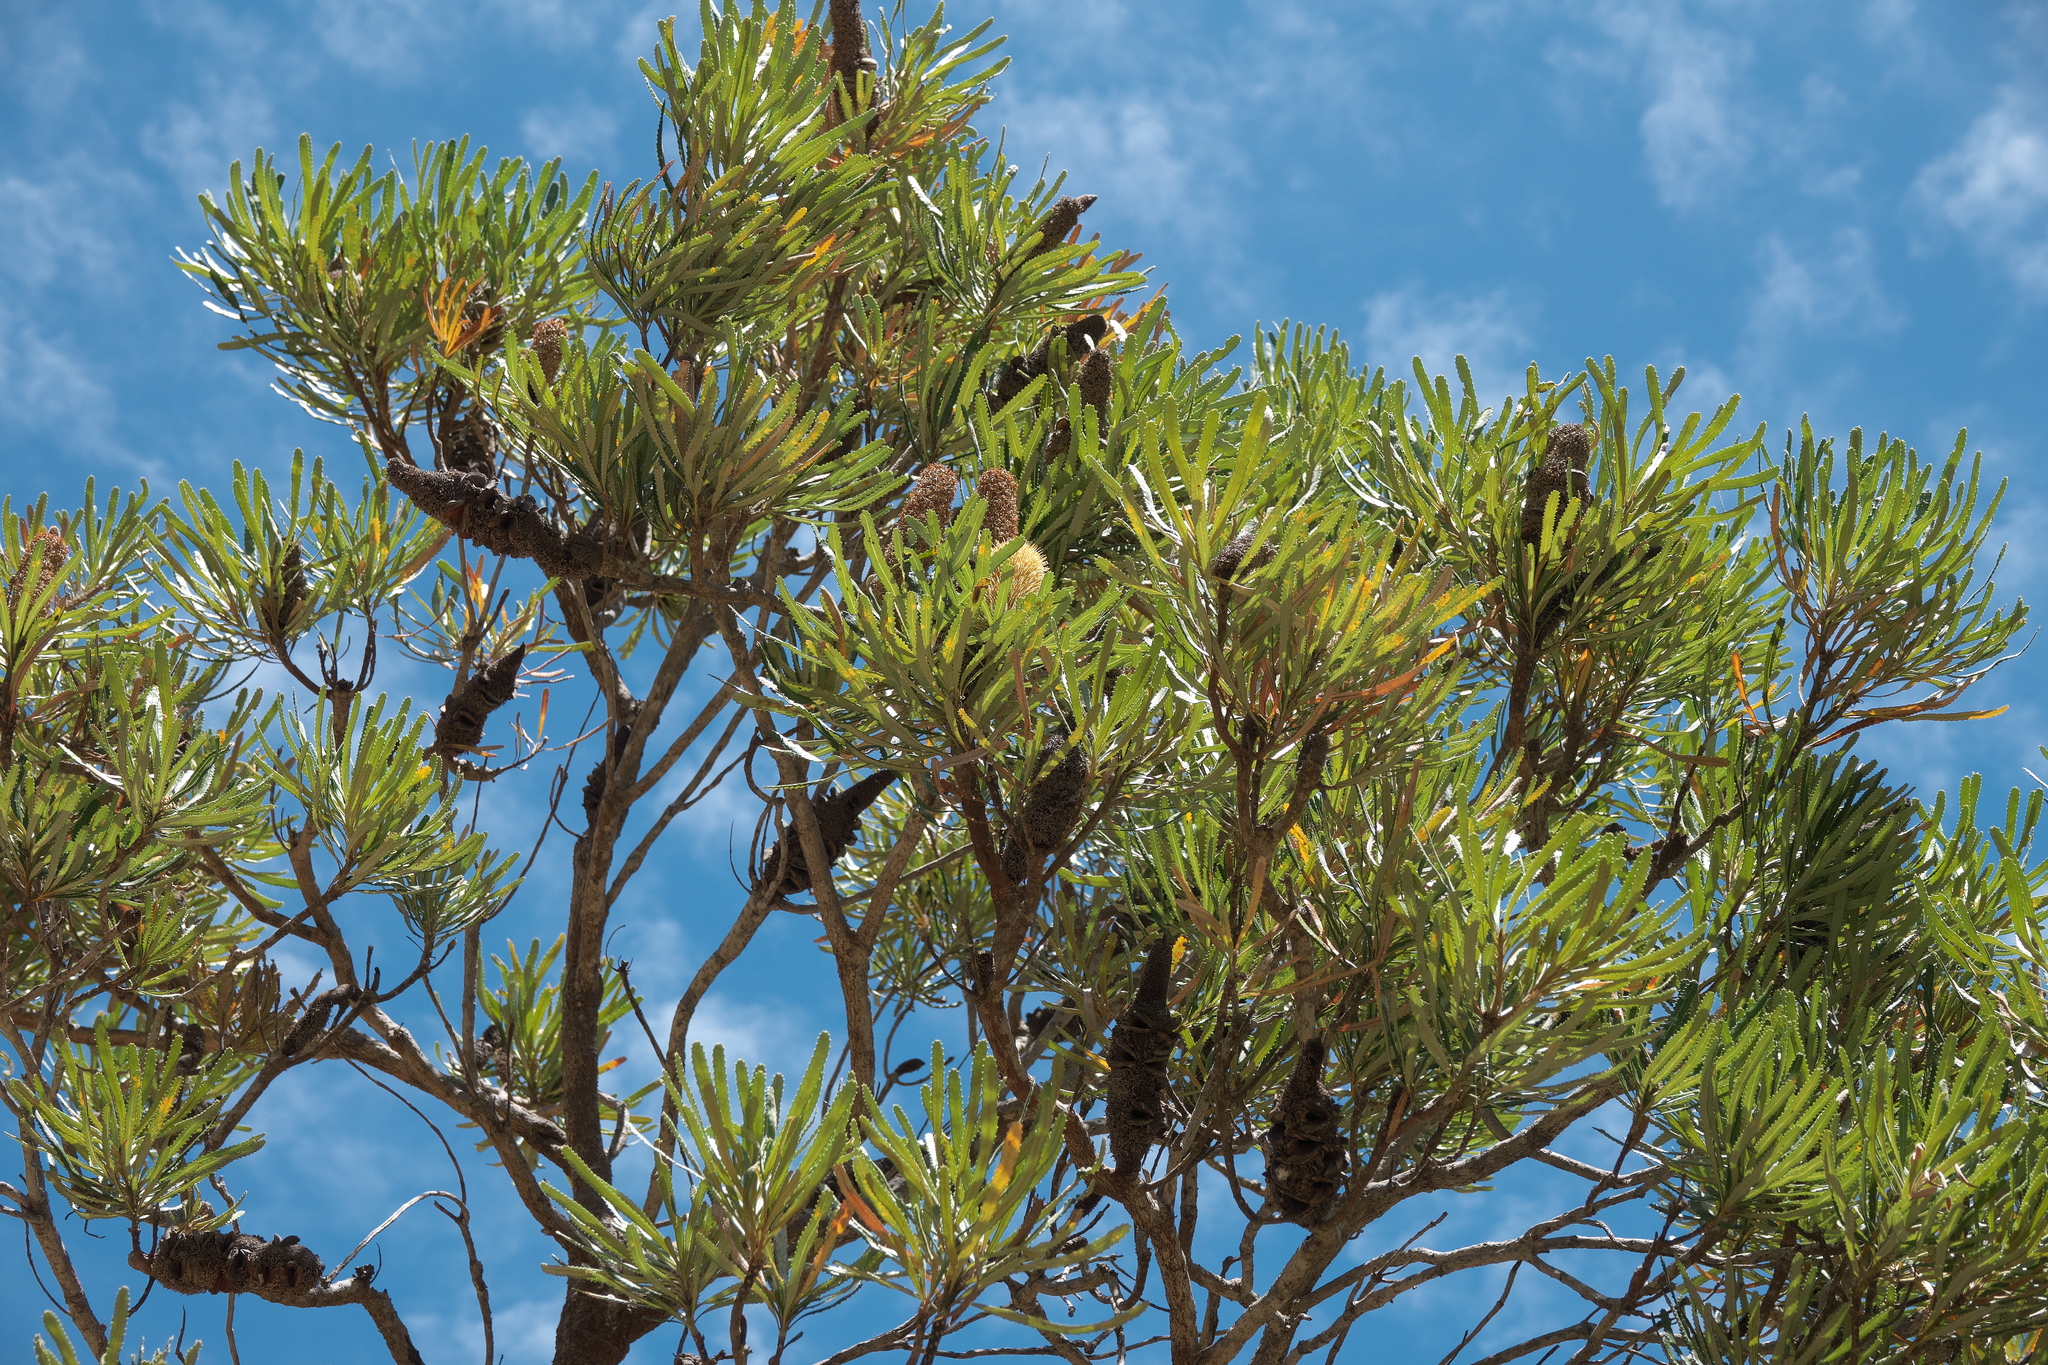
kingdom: Plantae
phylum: Tracheophyta
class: Magnoliopsida
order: Proteales
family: Proteaceae
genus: Banksia
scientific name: Banksia attenuata
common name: Coast banksia
